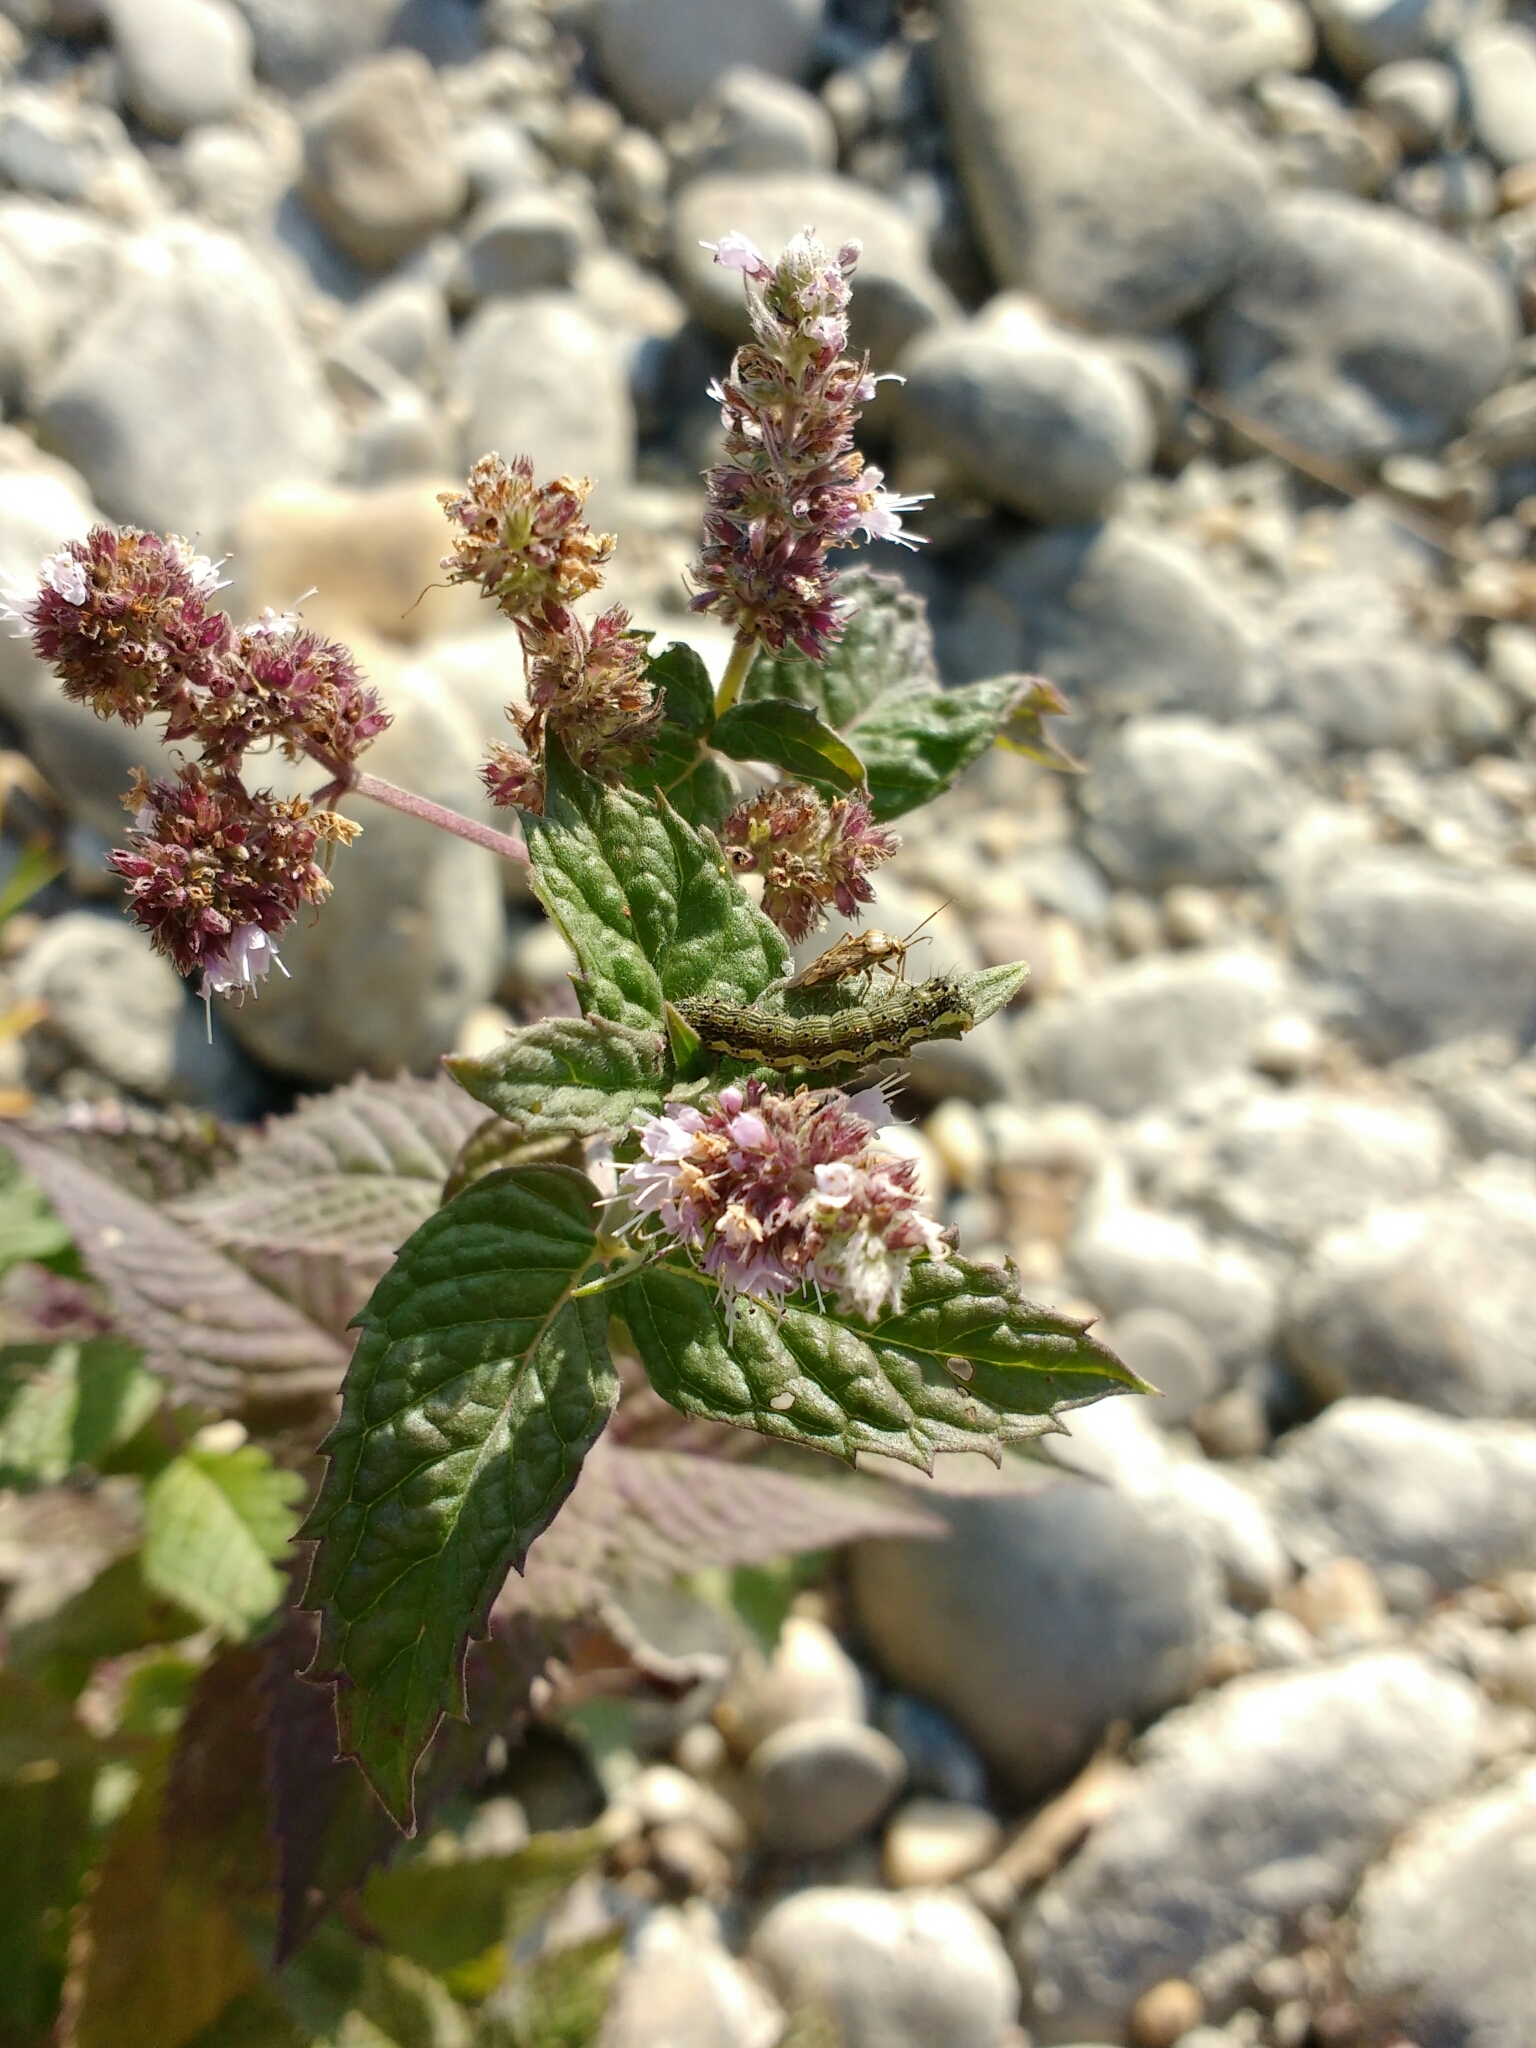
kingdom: Animalia
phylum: Arthropoda
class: Insecta
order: Lepidoptera
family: Noctuidae
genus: Helicoverpa
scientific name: Helicoverpa armigera
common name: Cotton bollworm
